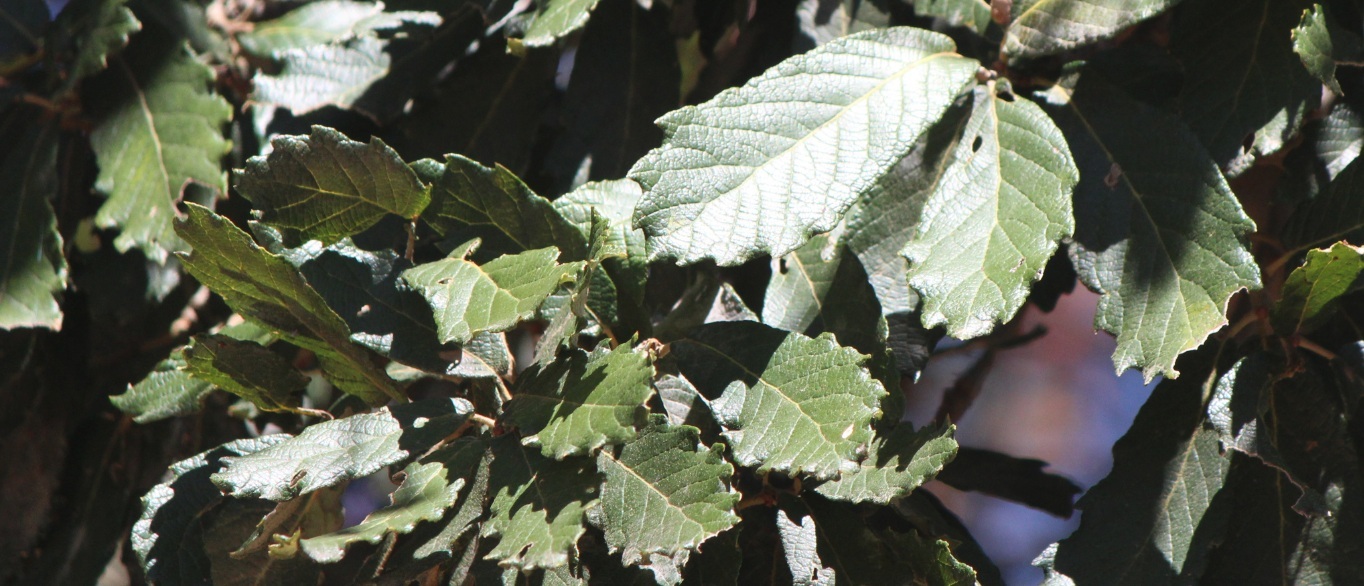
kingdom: Plantae
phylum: Tracheophyta
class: Magnoliopsida
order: Fagales
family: Fagaceae
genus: Quercus
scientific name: Quercus rugosa
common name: Netleaf oak
